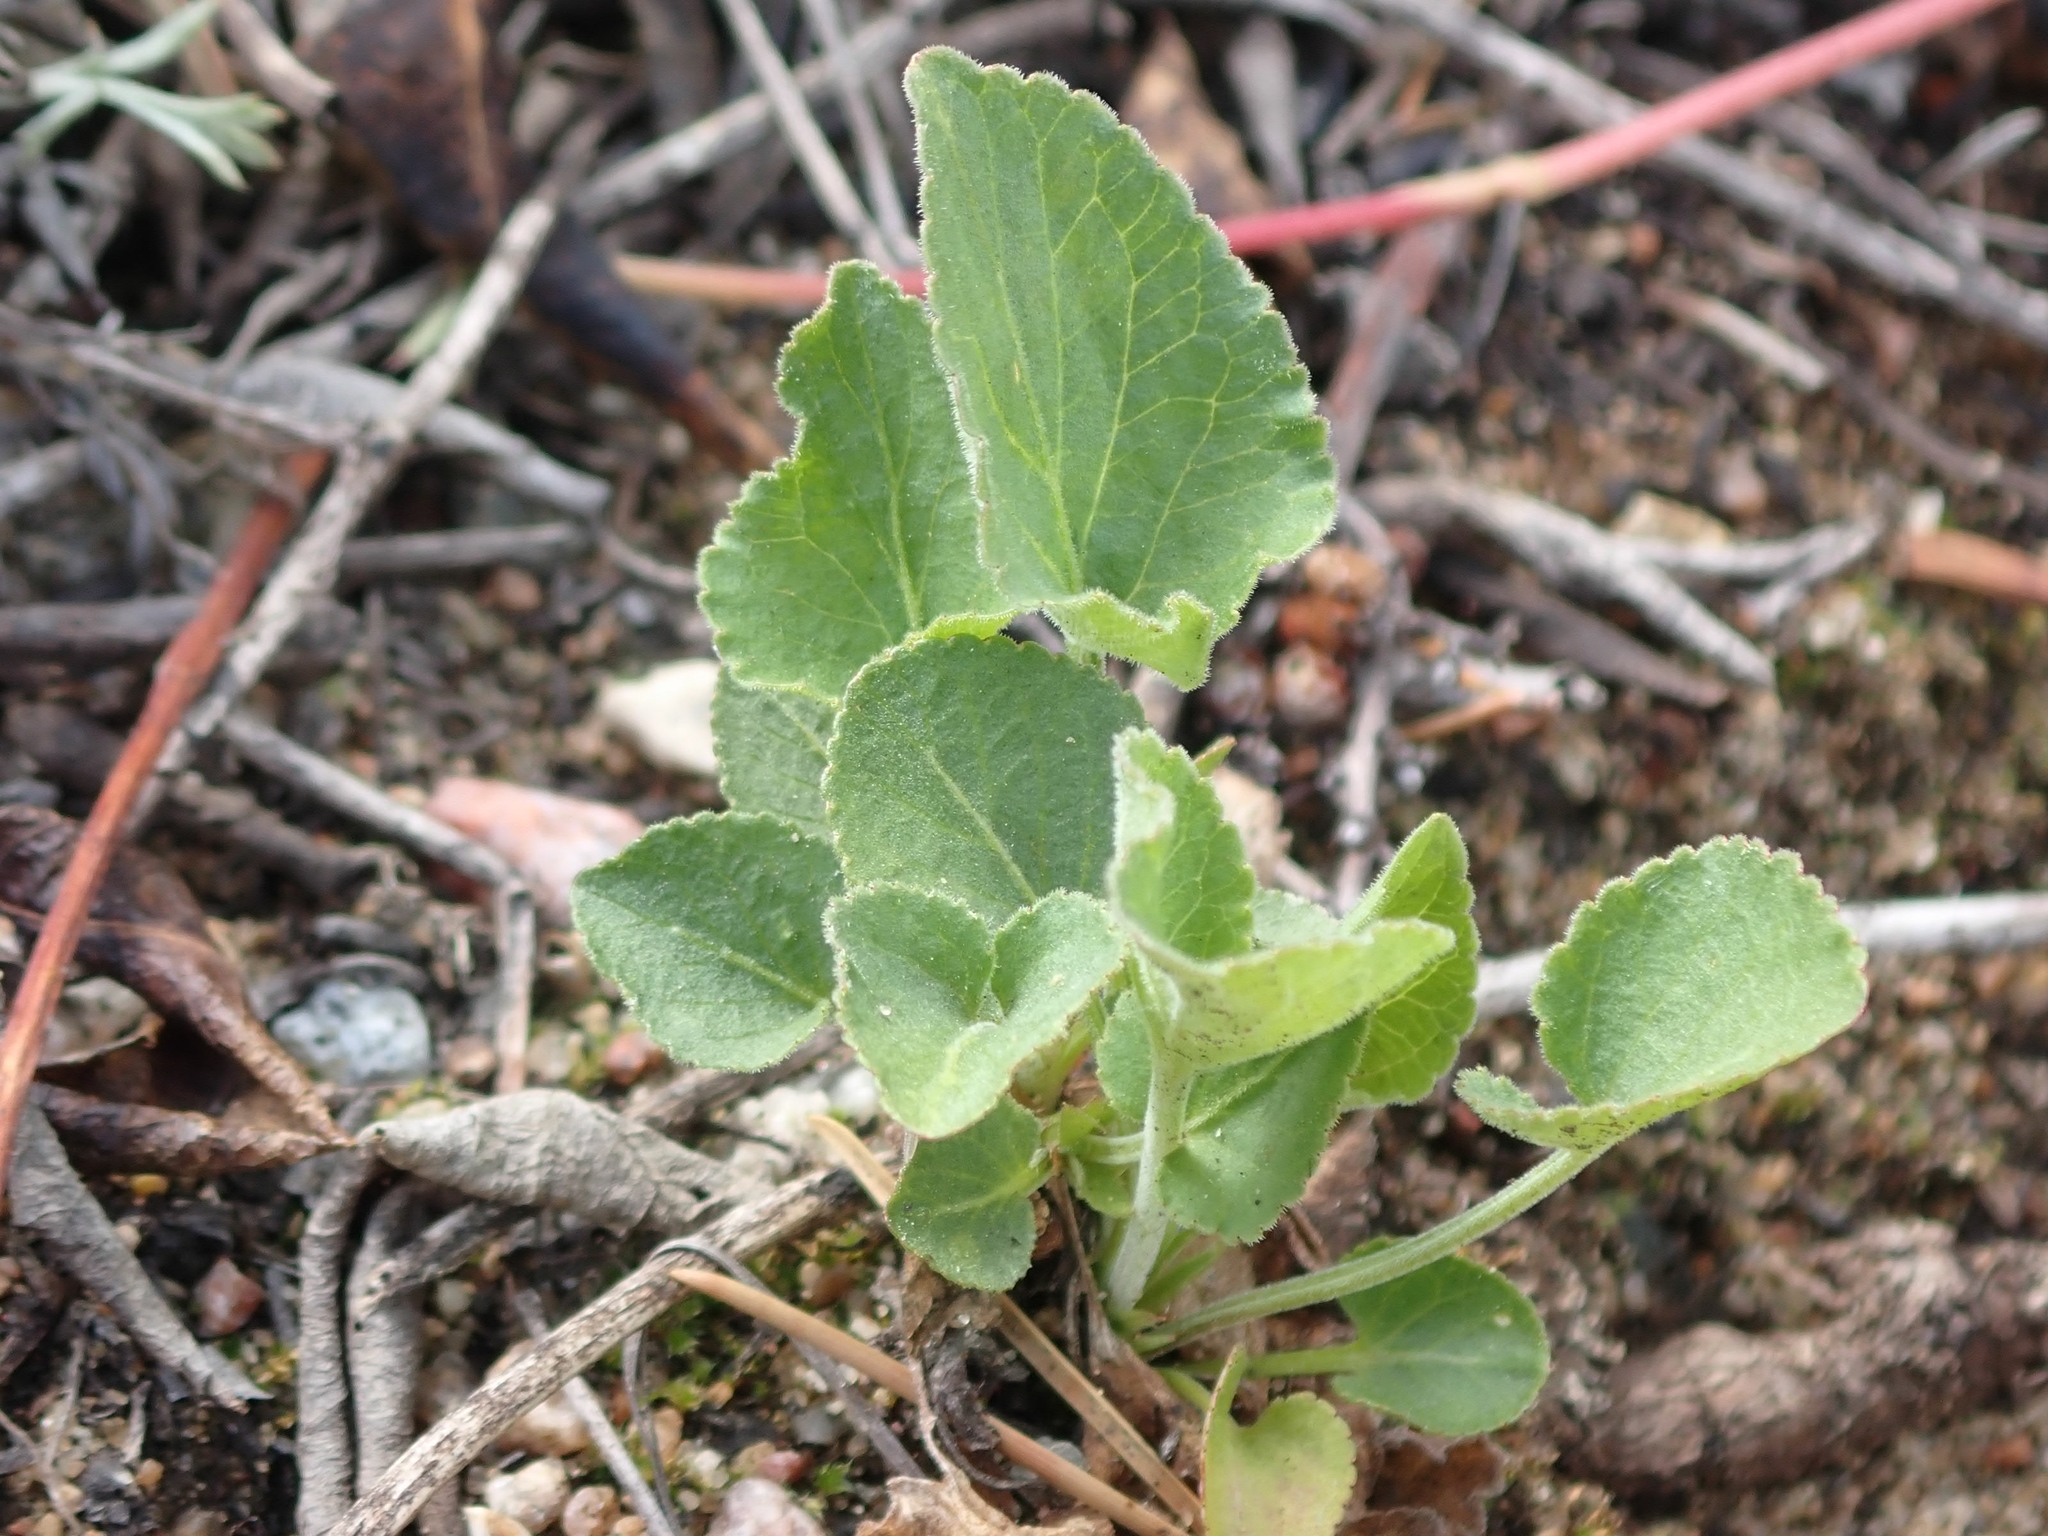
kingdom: Plantae
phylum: Tracheophyta
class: Magnoliopsida
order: Malpighiales
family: Violaceae
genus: Viola
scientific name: Viola adunca
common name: Sand violet
